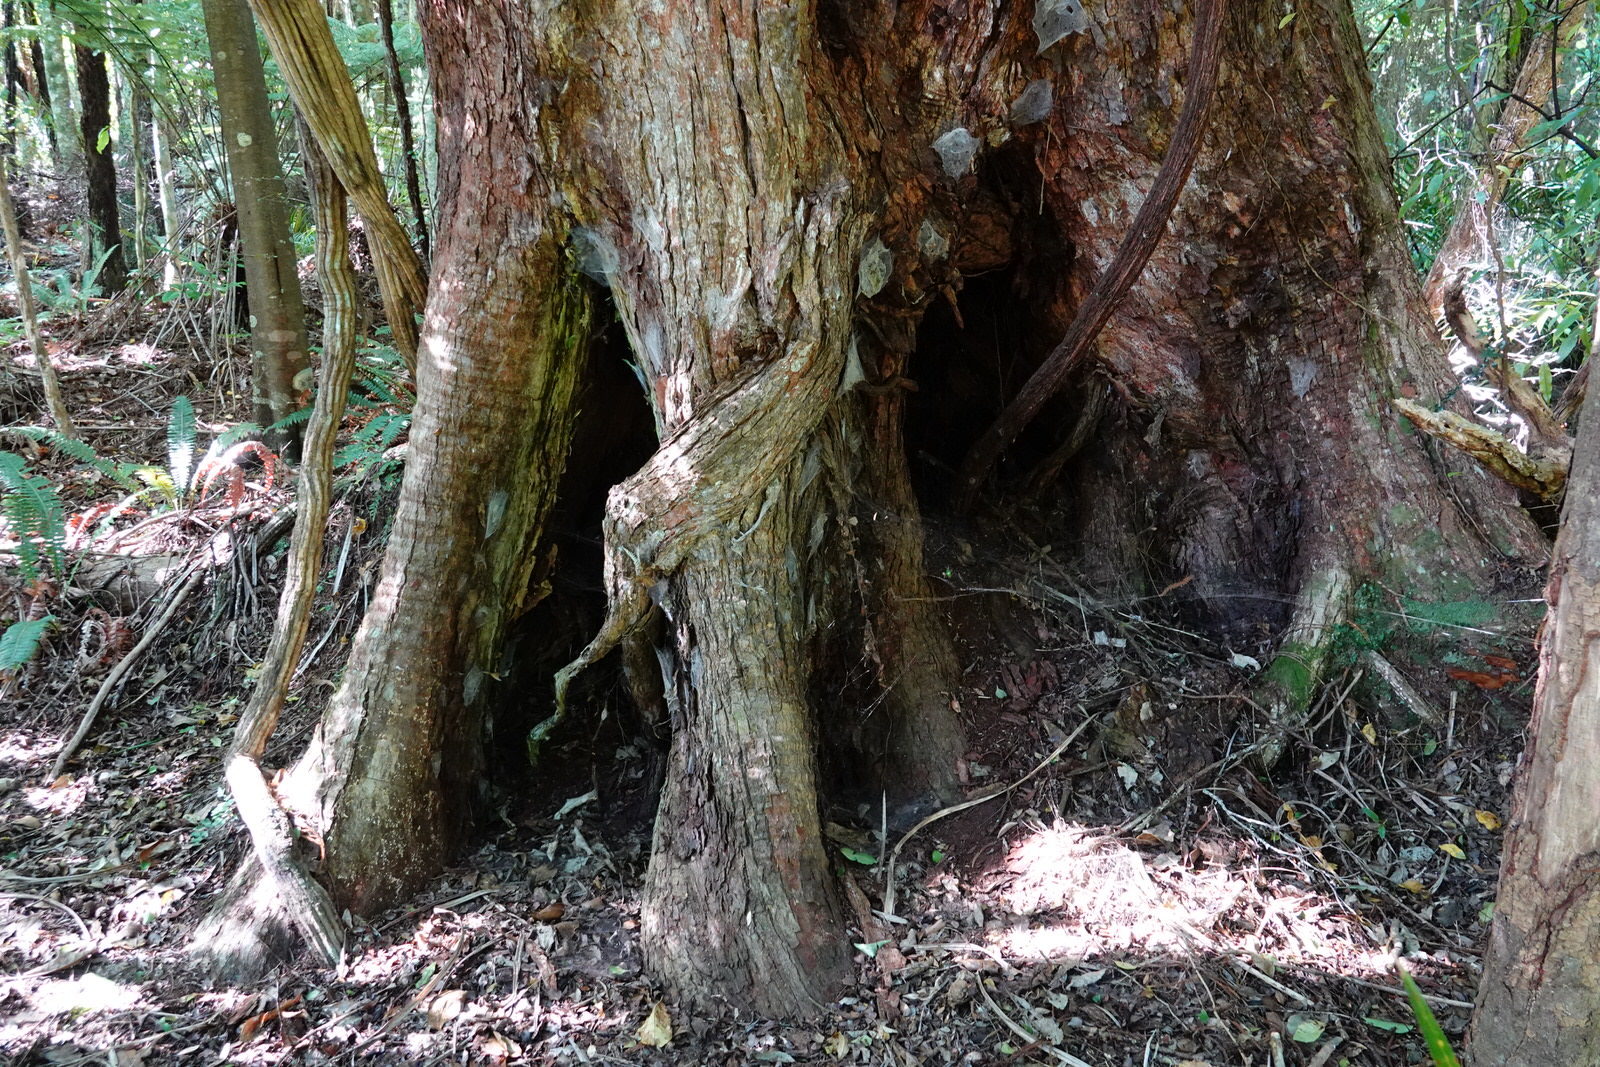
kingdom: Plantae
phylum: Tracheophyta
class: Magnoliopsida
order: Myrtales
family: Myrtaceae
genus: Metrosideros
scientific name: Metrosideros robusta
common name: Northern rata
